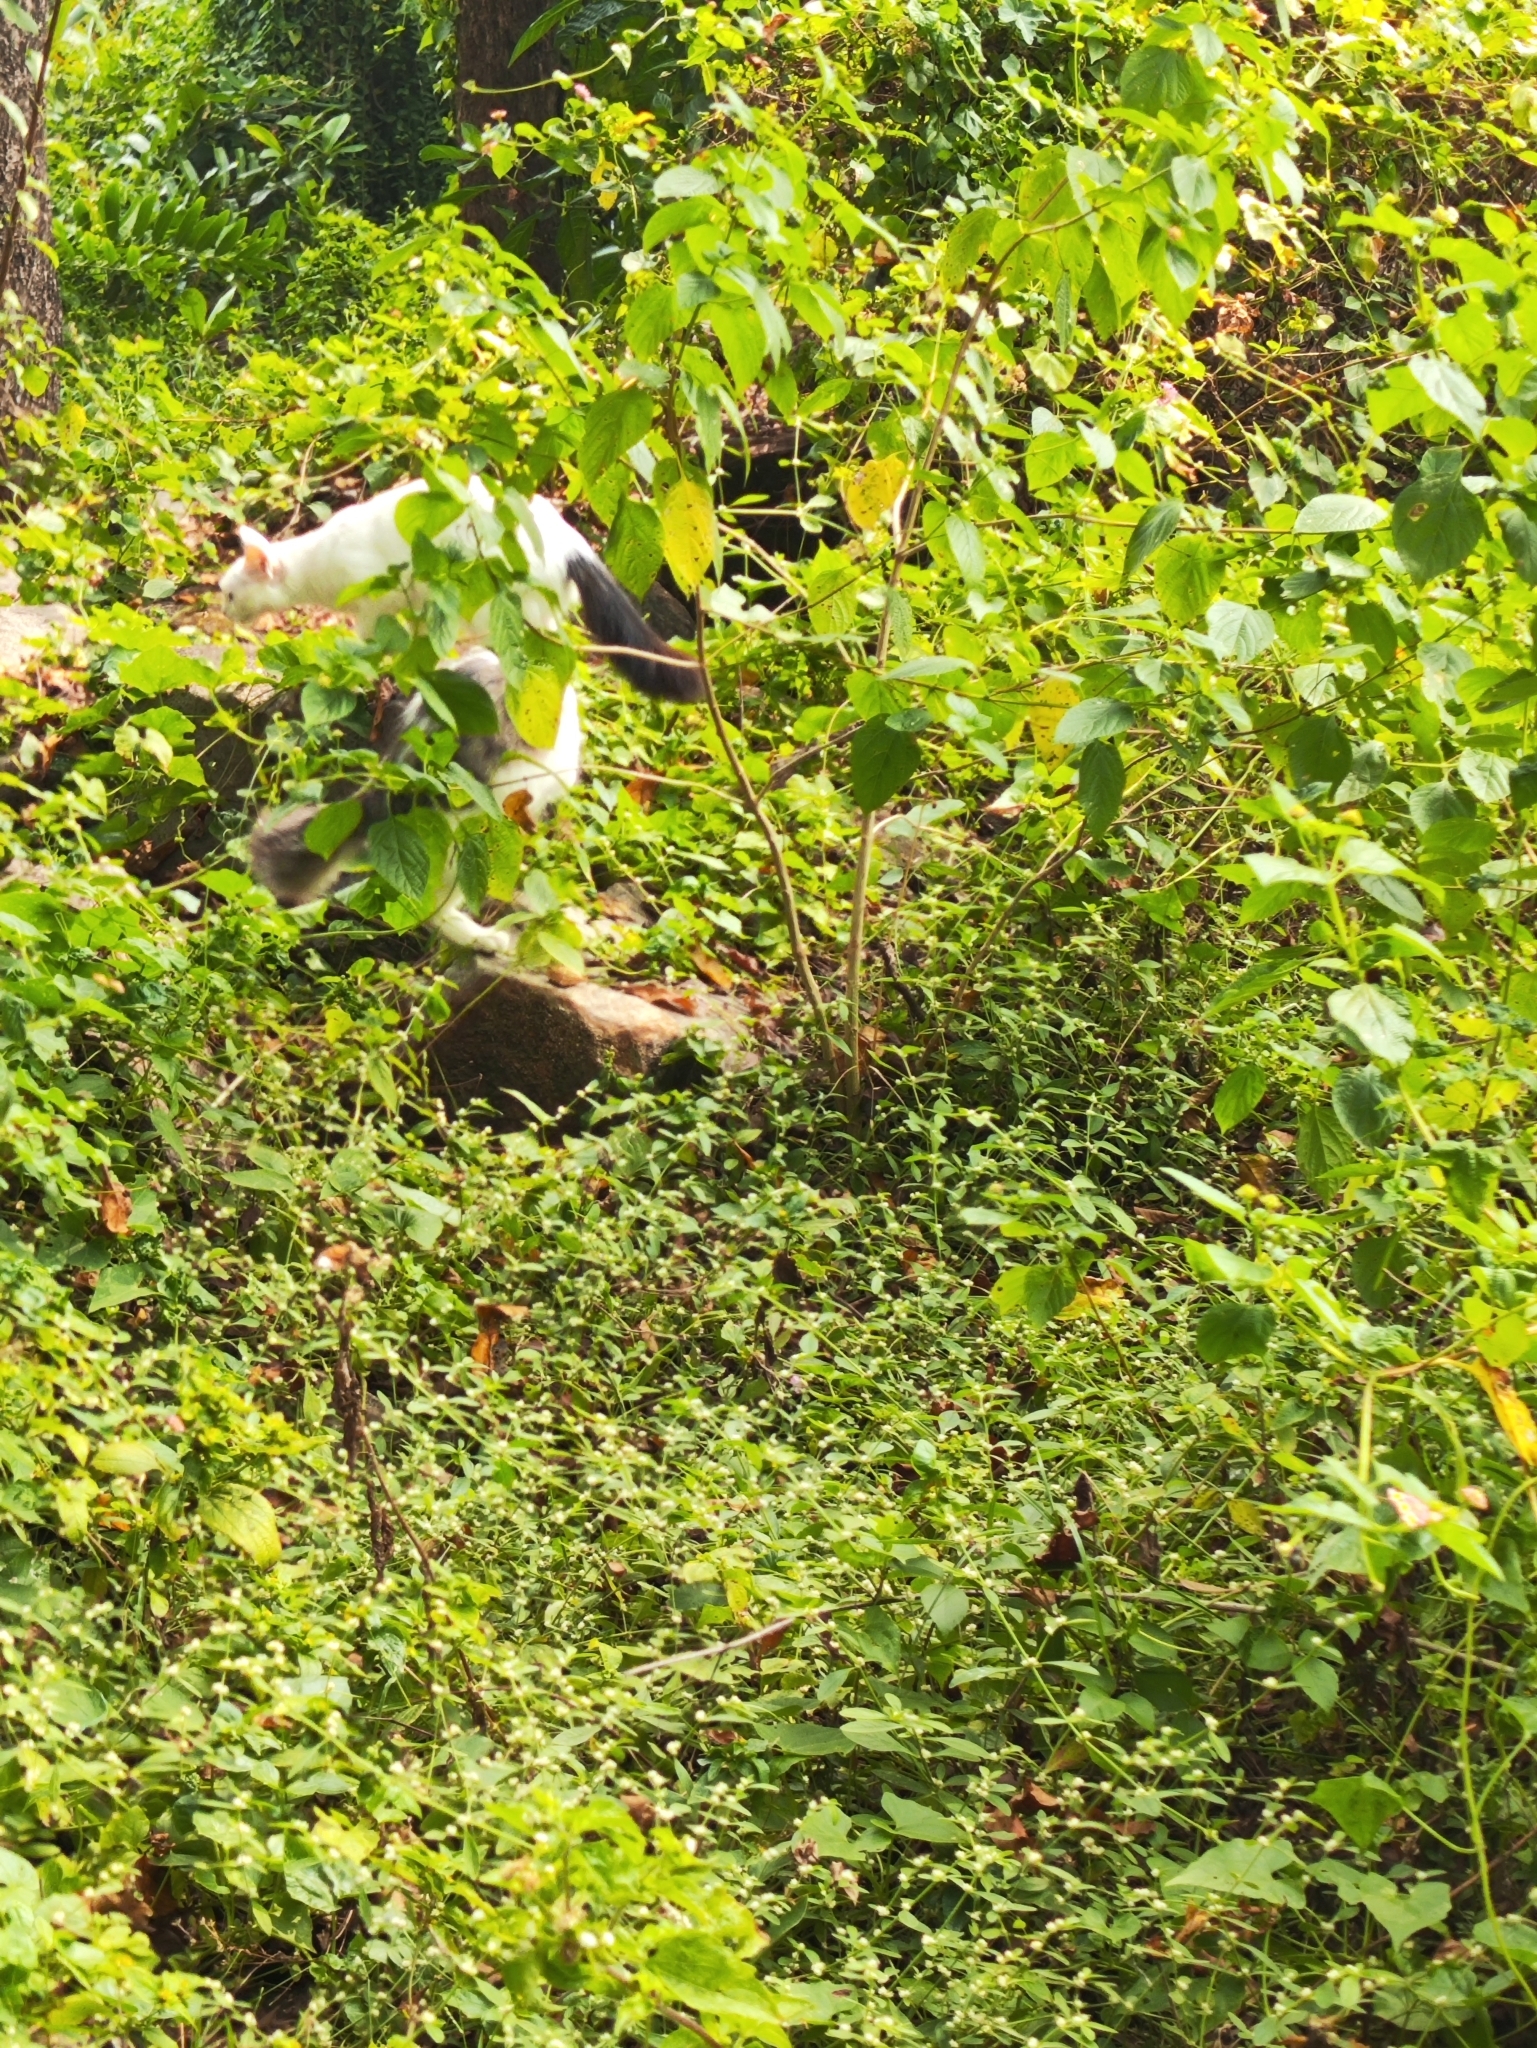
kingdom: Animalia
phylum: Chordata
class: Mammalia
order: Carnivora
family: Felidae
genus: Felis
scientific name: Felis catus
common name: Domestic cat
